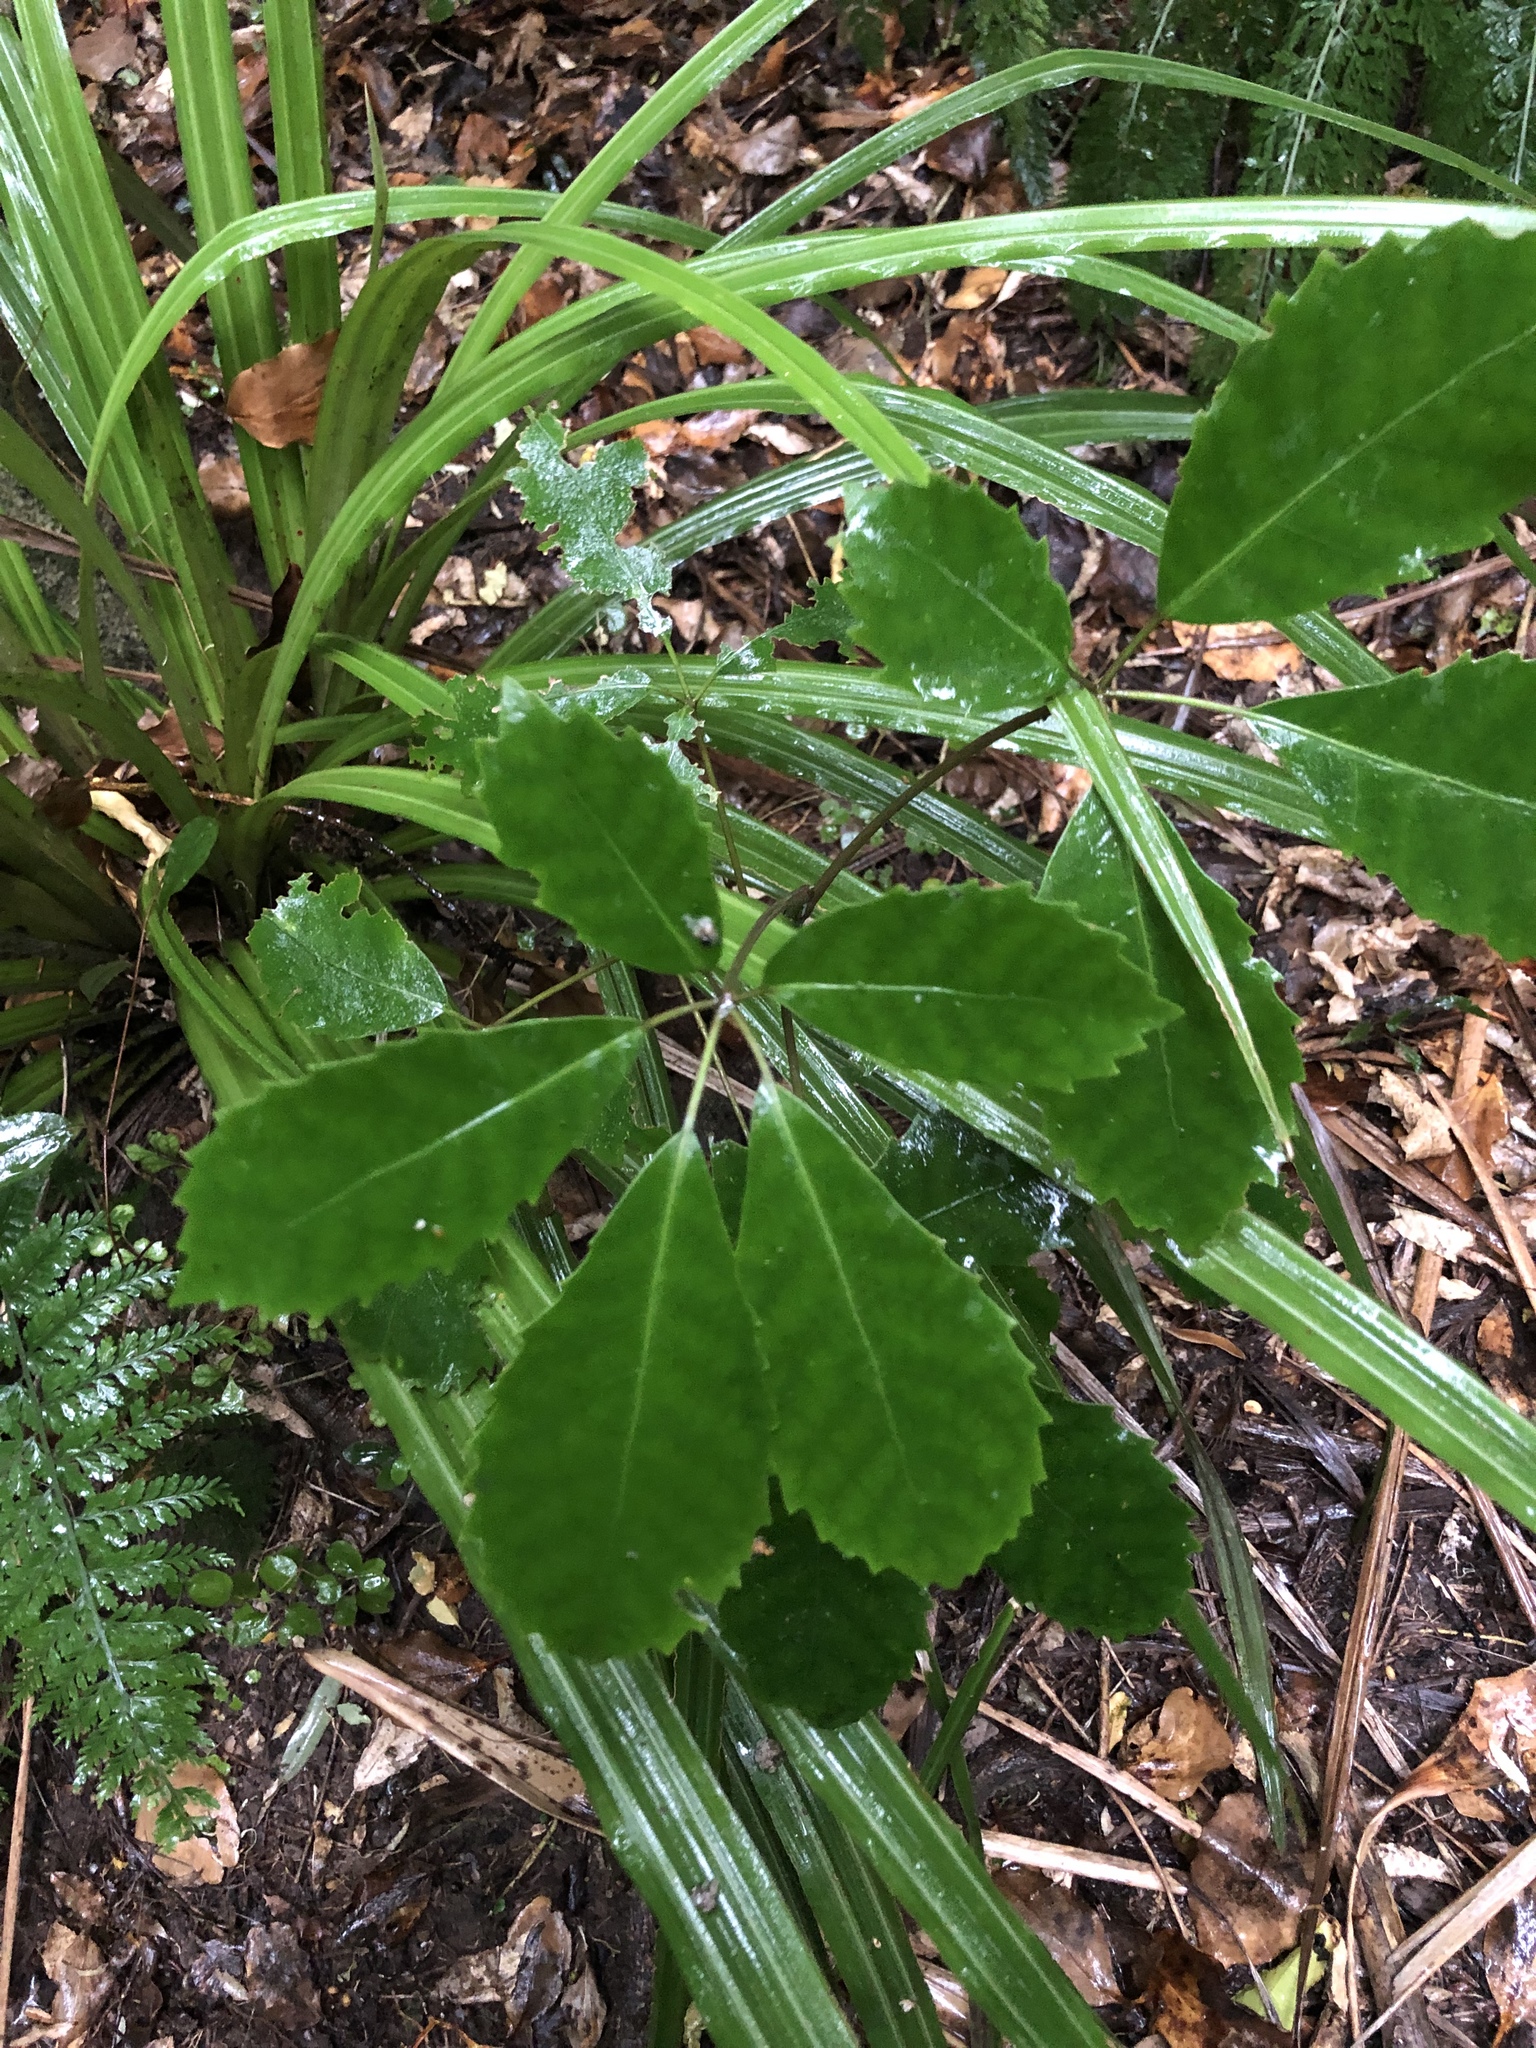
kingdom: Plantae
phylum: Tracheophyta
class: Magnoliopsida
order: Apiales
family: Araliaceae
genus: Neopanax
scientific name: Neopanax arboreus
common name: Five-fingers
